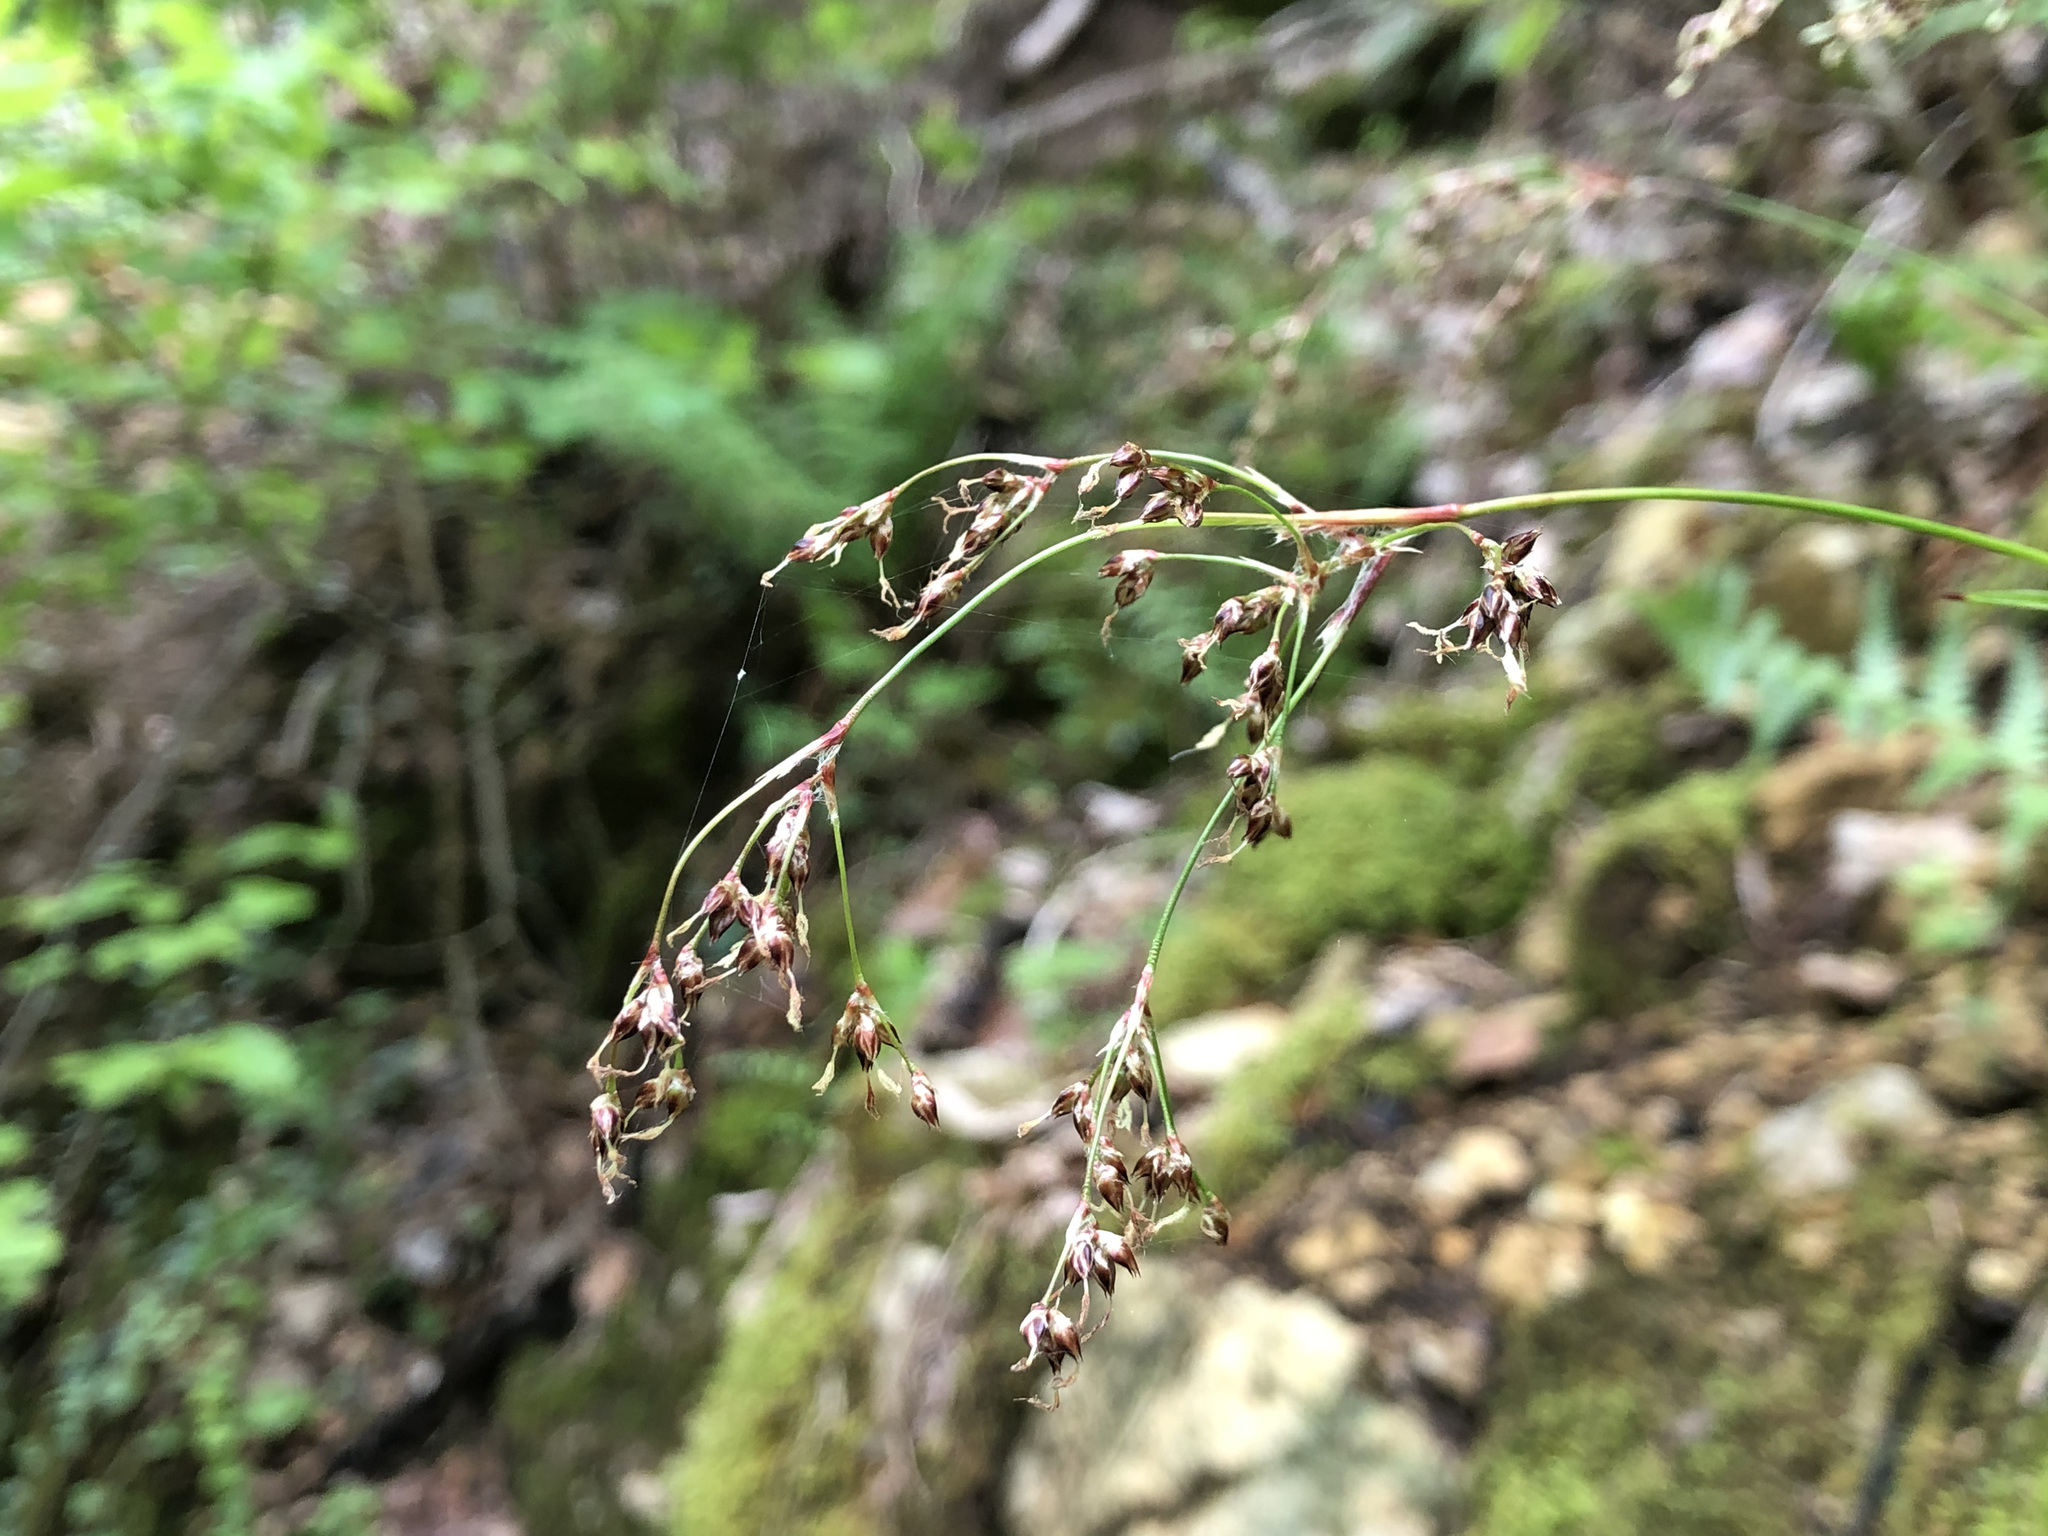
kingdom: Plantae
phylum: Tracheophyta
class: Liliopsida
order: Poales
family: Juncaceae
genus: Luzula
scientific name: Luzula sylvatica
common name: Great wood-rush
